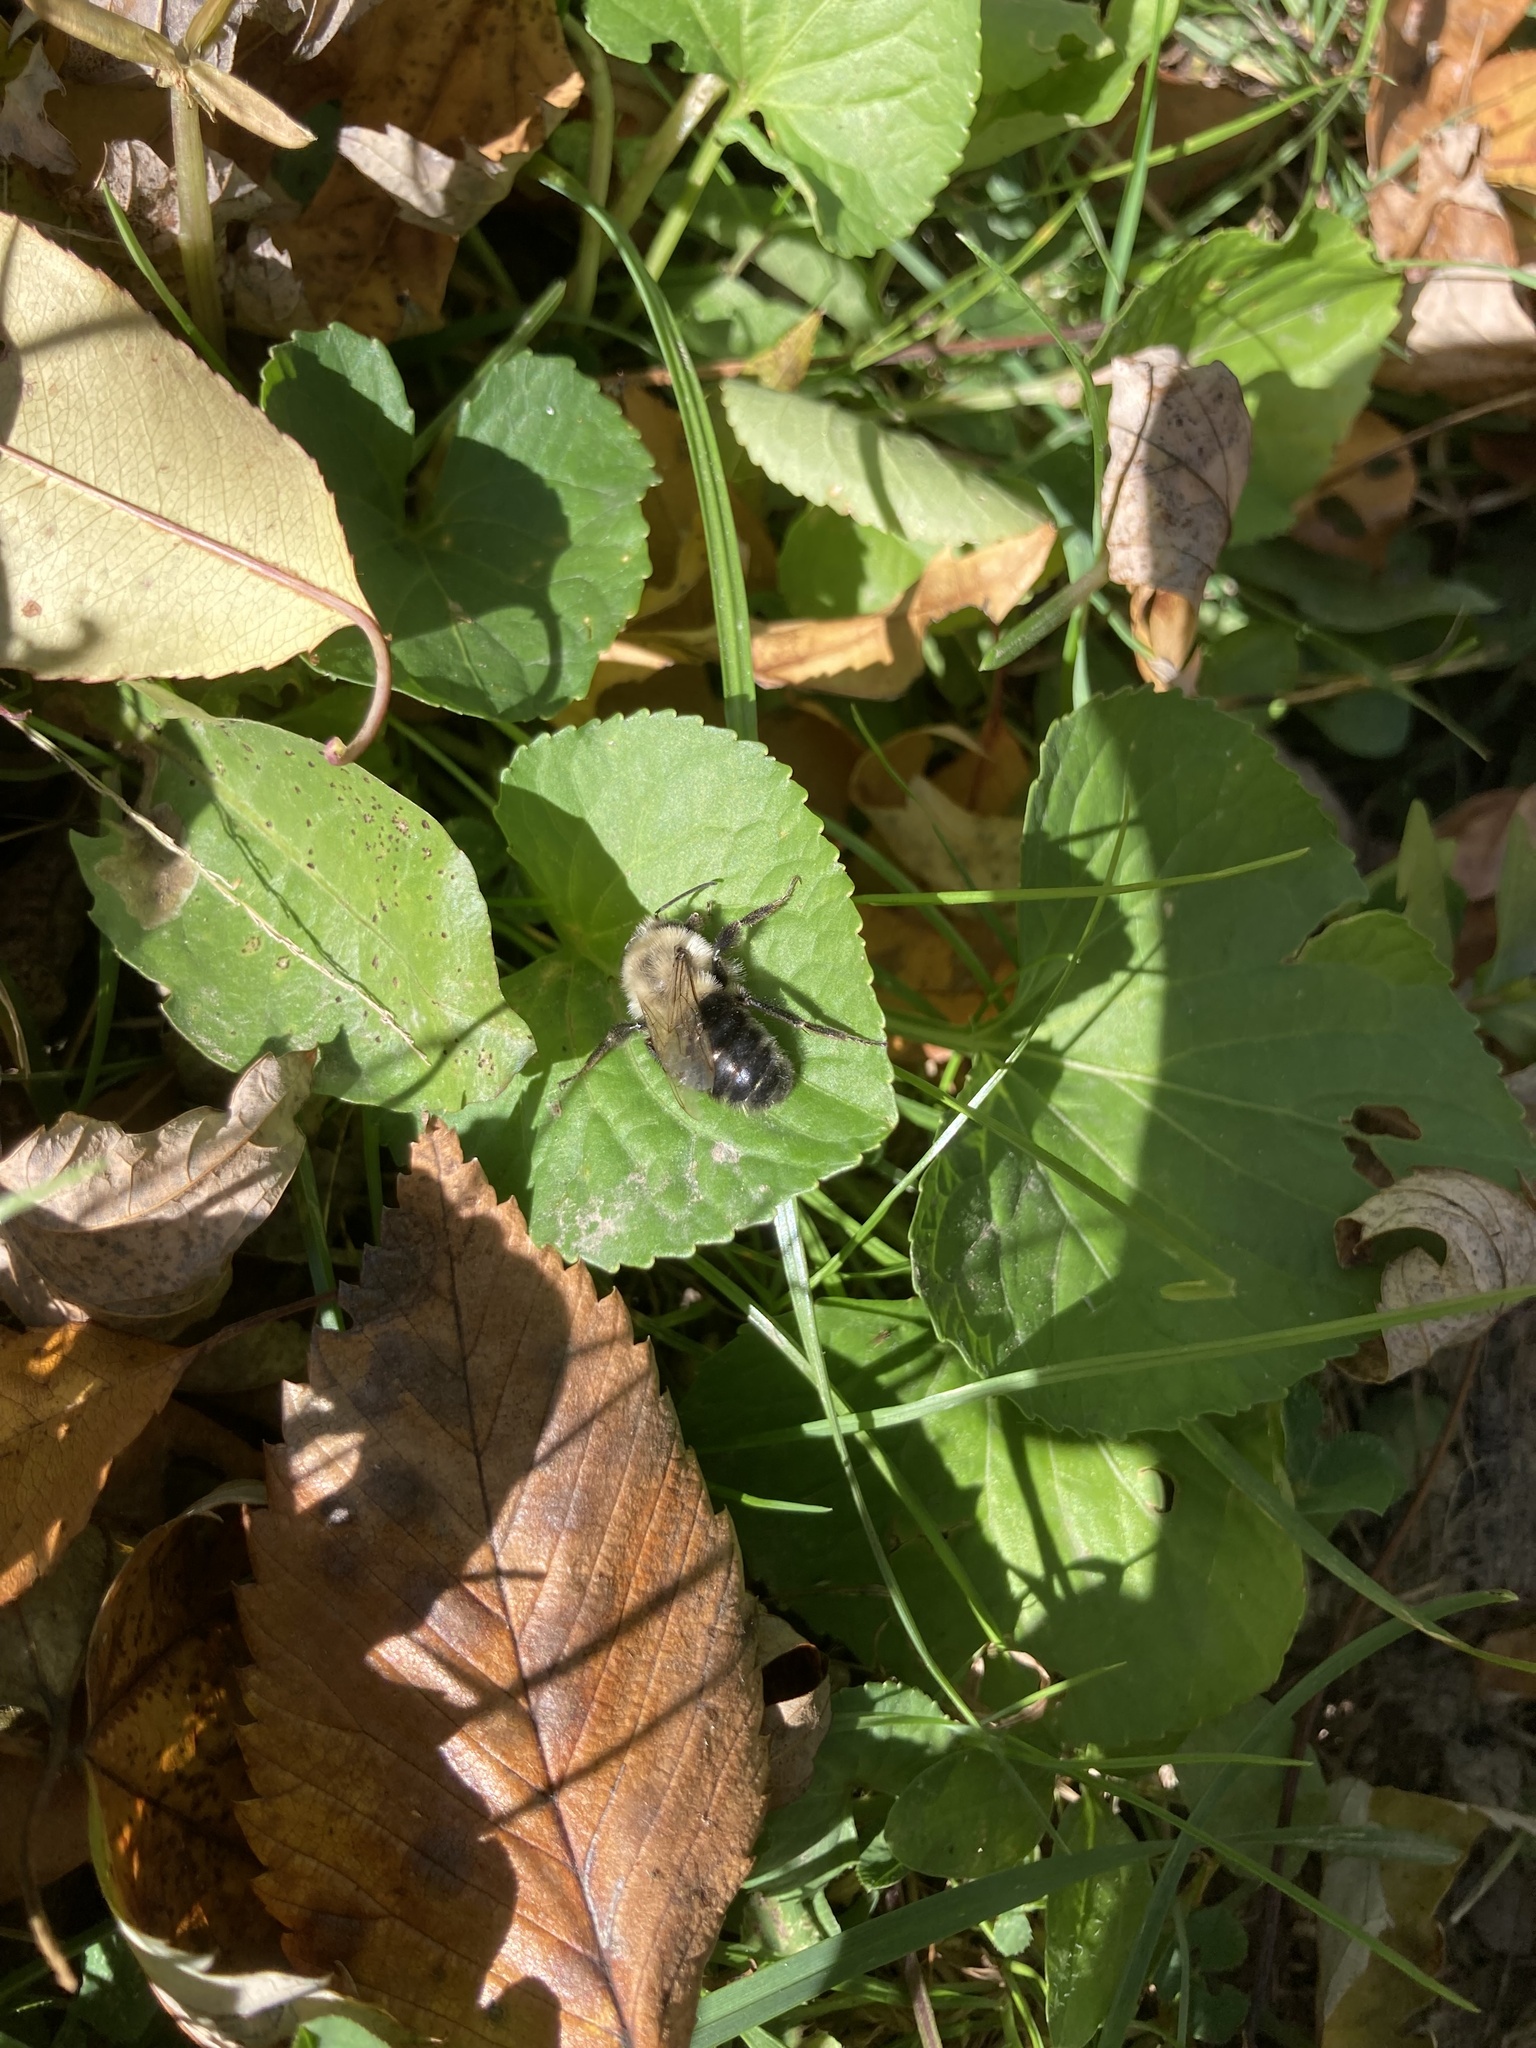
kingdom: Animalia
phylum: Arthropoda
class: Insecta
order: Hymenoptera
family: Apidae
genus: Bombus
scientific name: Bombus impatiens
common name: Common eastern bumble bee
